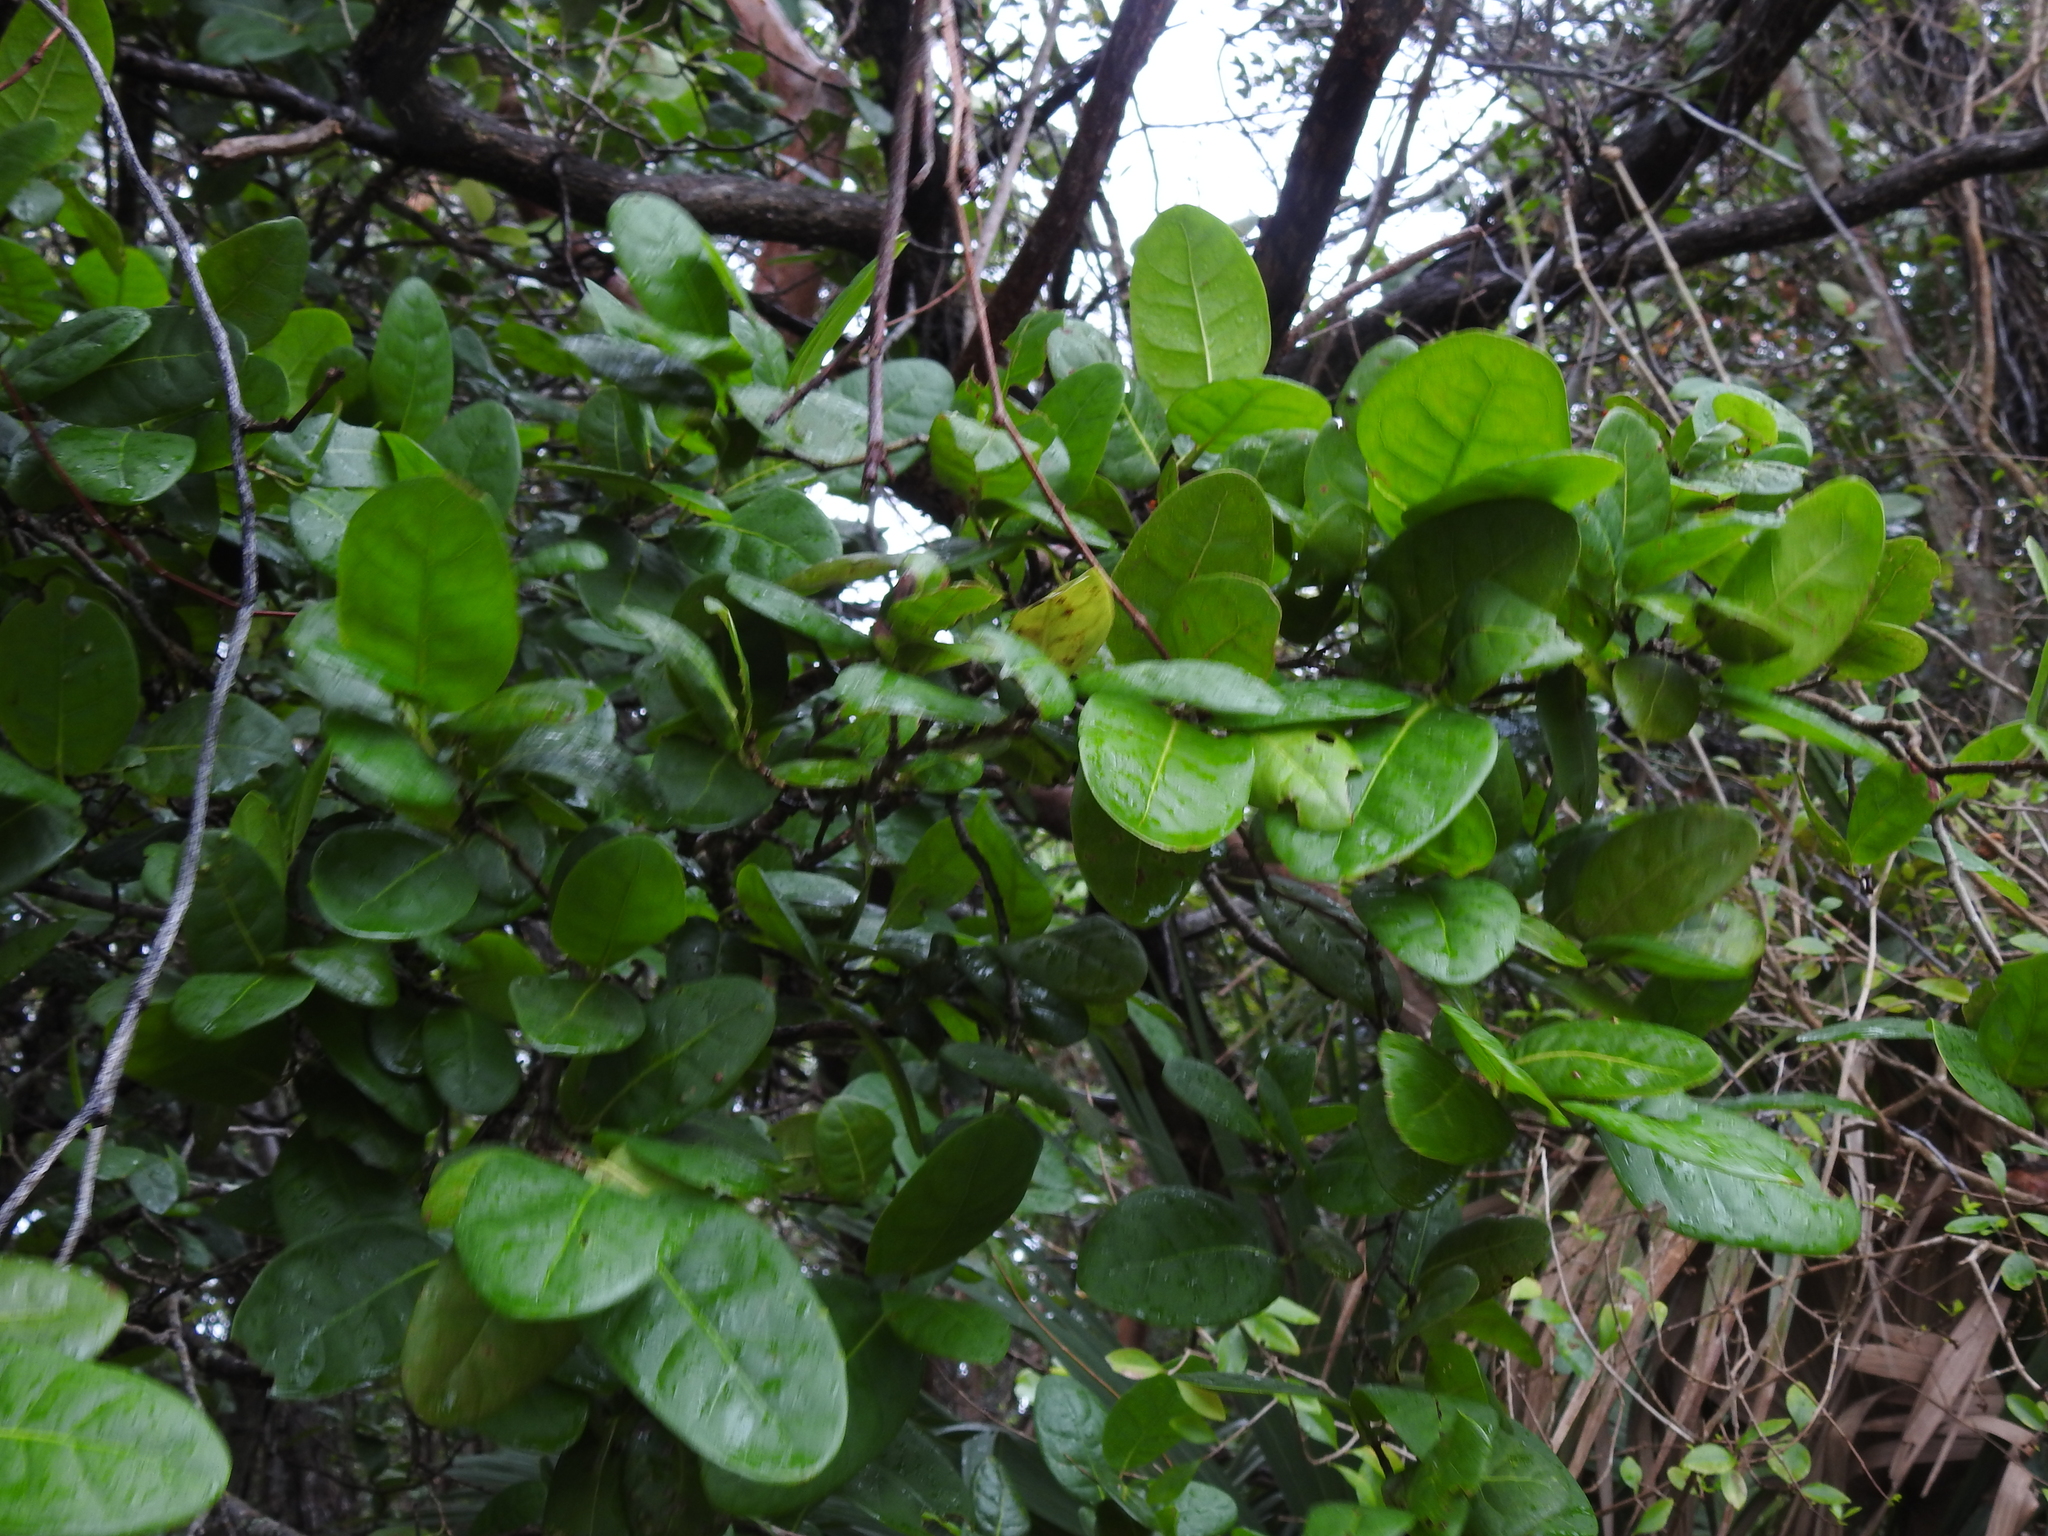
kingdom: Plantae
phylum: Tracheophyta
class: Magnoliopsida
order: Caryophyllales
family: Polygonaceae
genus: Coccoloba
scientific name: Coccoloba diversifolia
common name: Pigeon-plum
